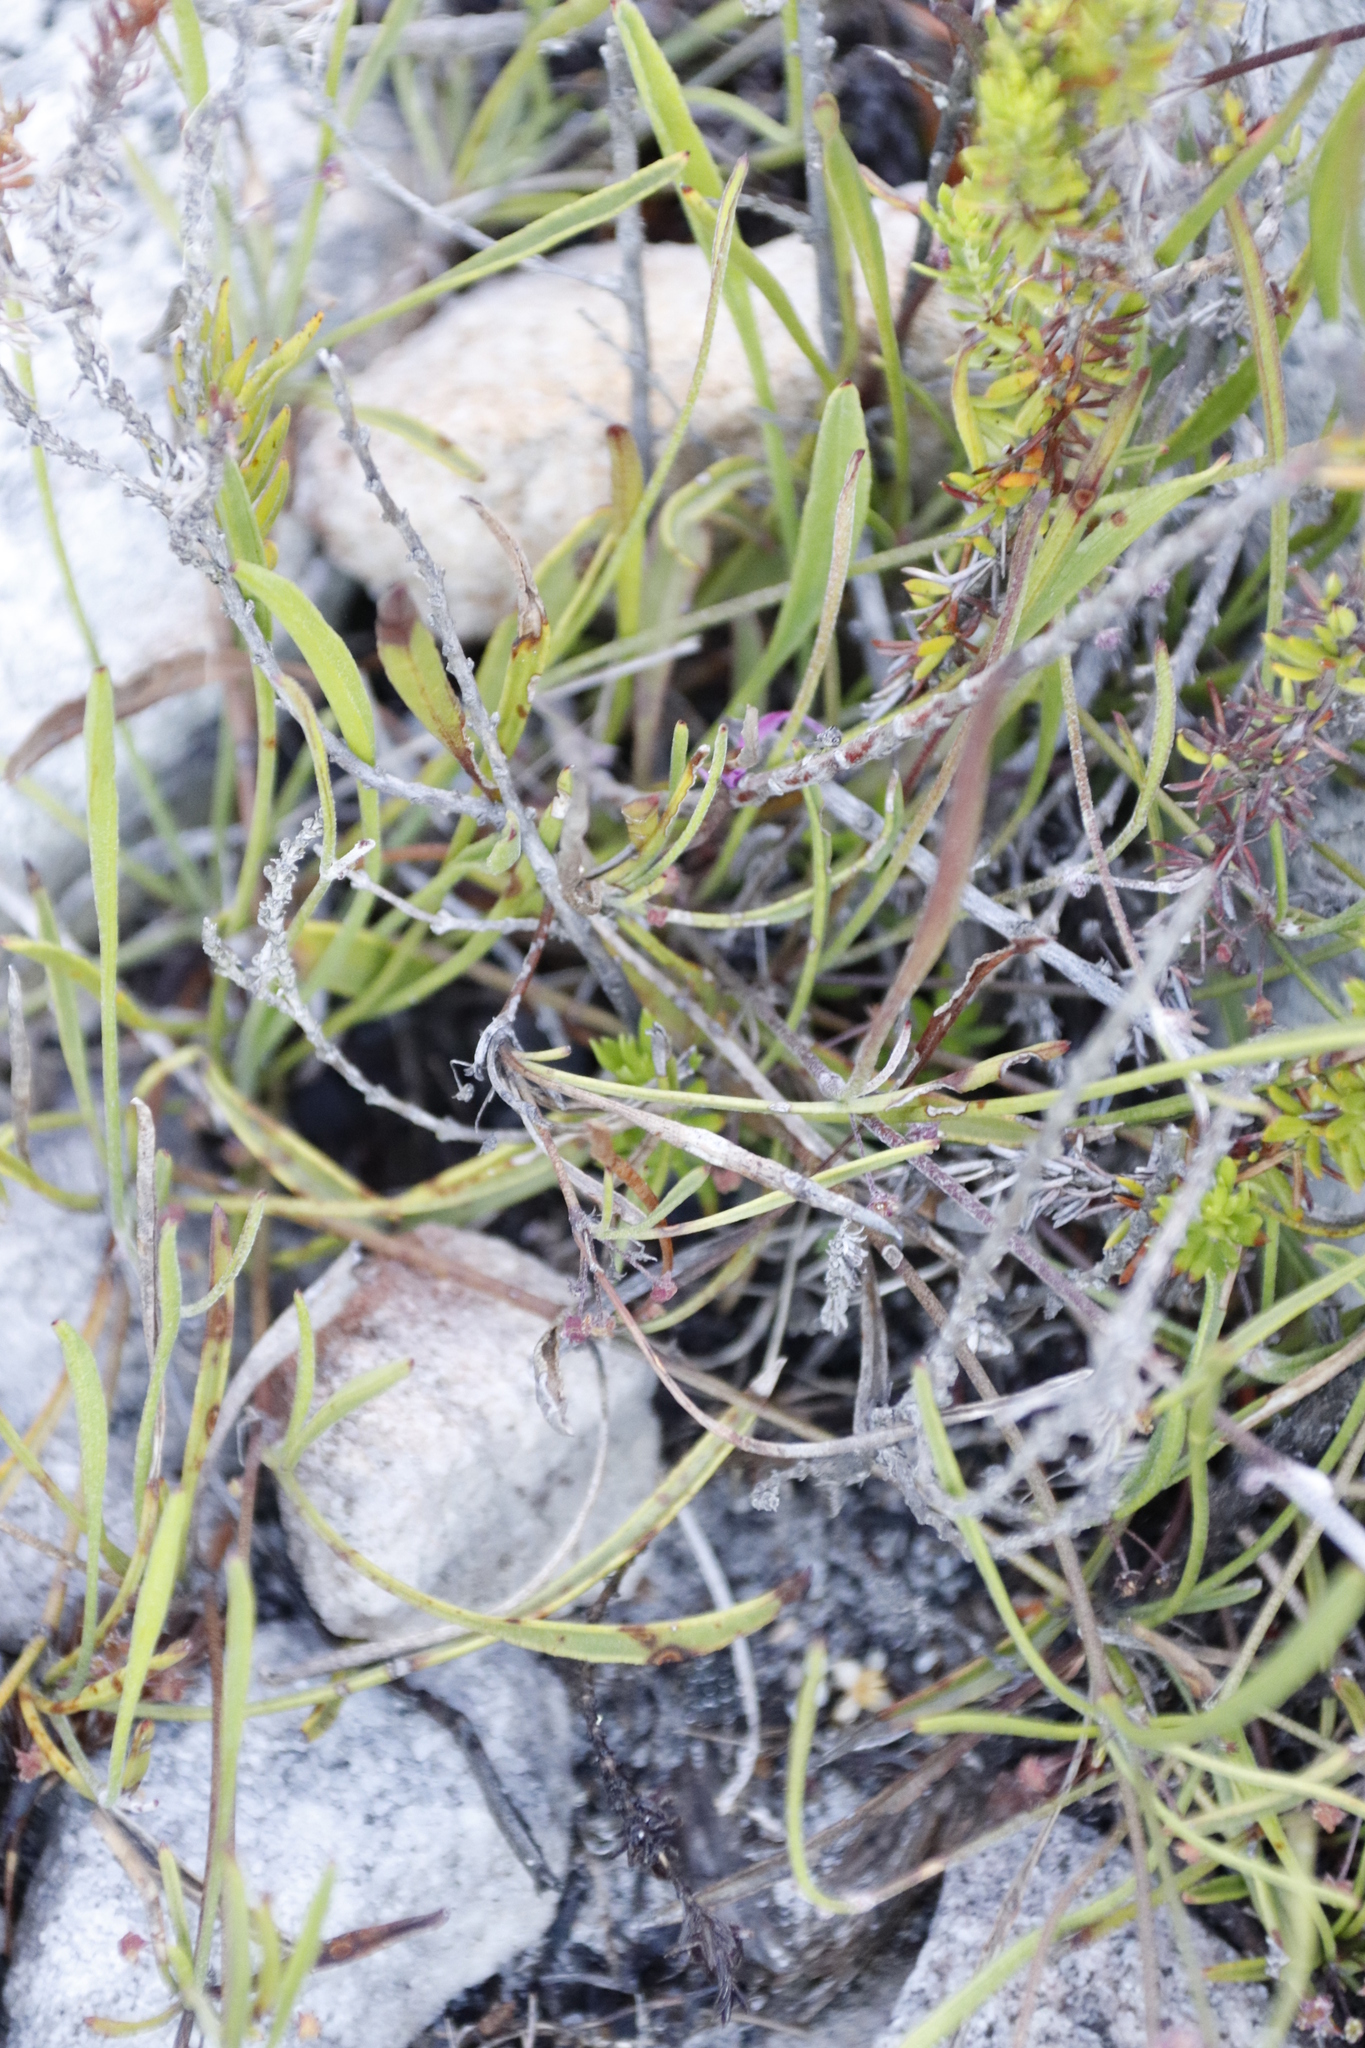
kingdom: Plantae
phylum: Tracheophyta
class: Magnoliopsida
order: Apiales
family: Apiaceae
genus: Centella
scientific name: Centella affinis
